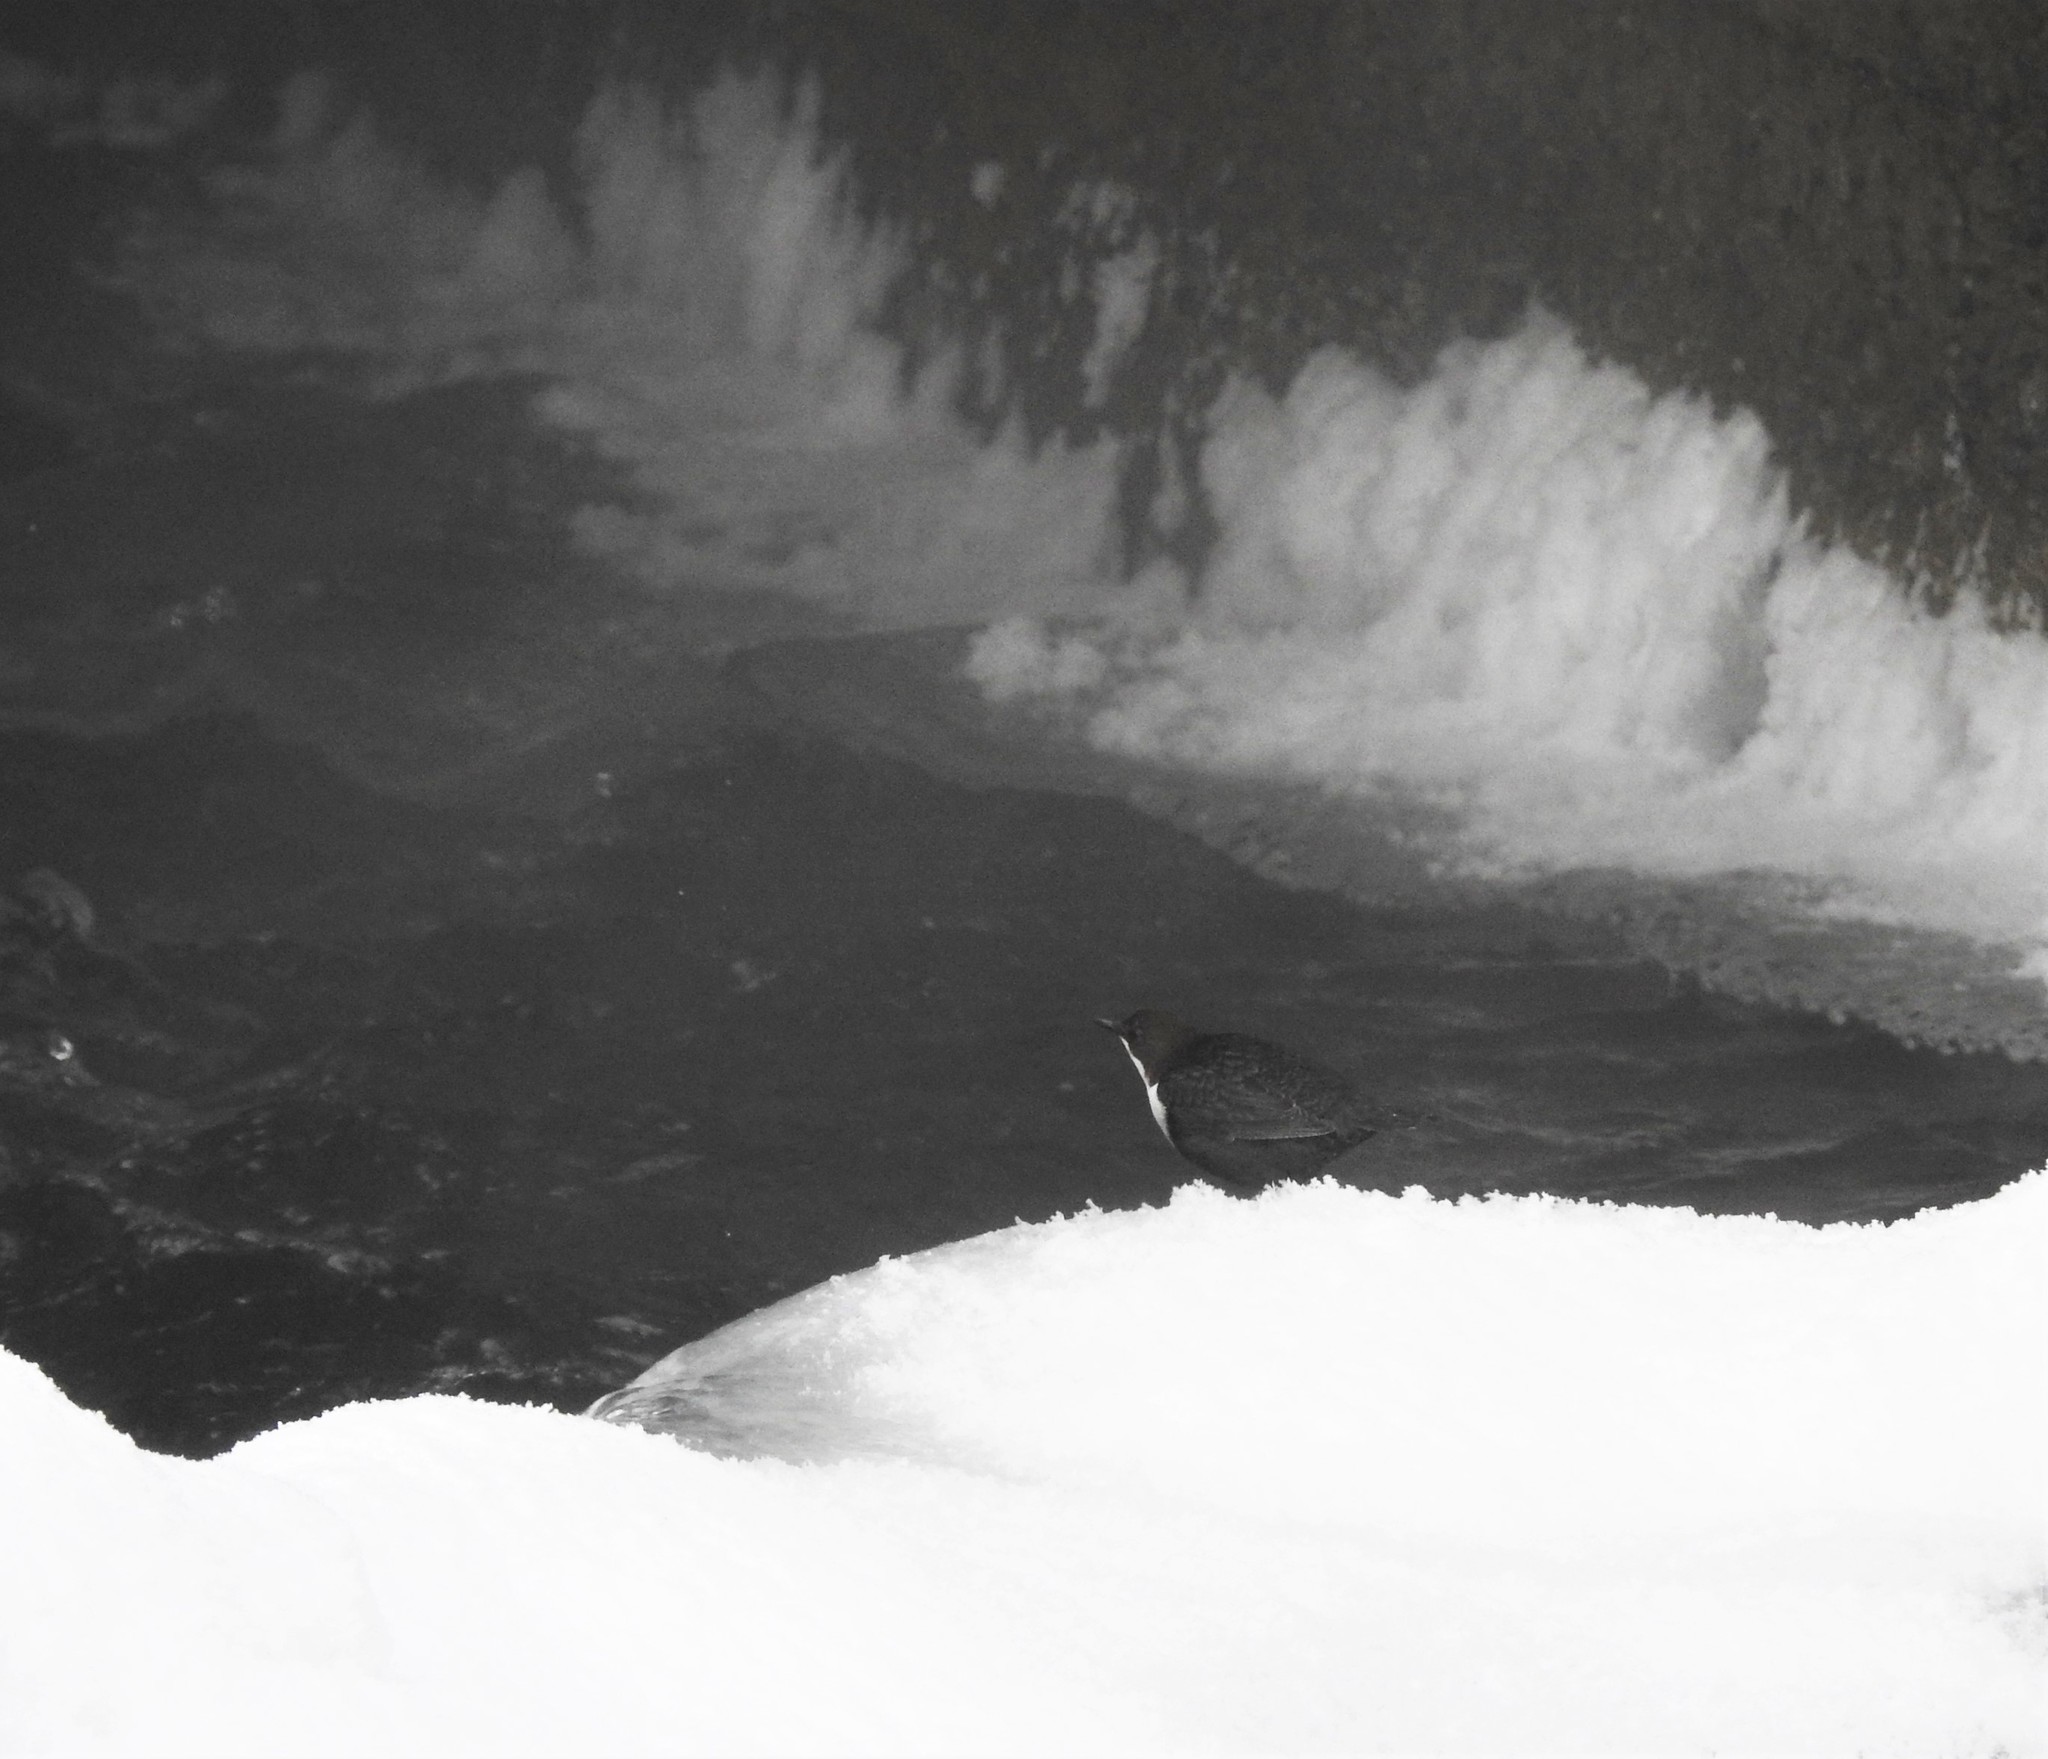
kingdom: Animalia
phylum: Chordata
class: Aves
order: Passeriformes
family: Cinclidae
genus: Cinclus
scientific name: Cinclus cinclus
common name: White-throated dipper
